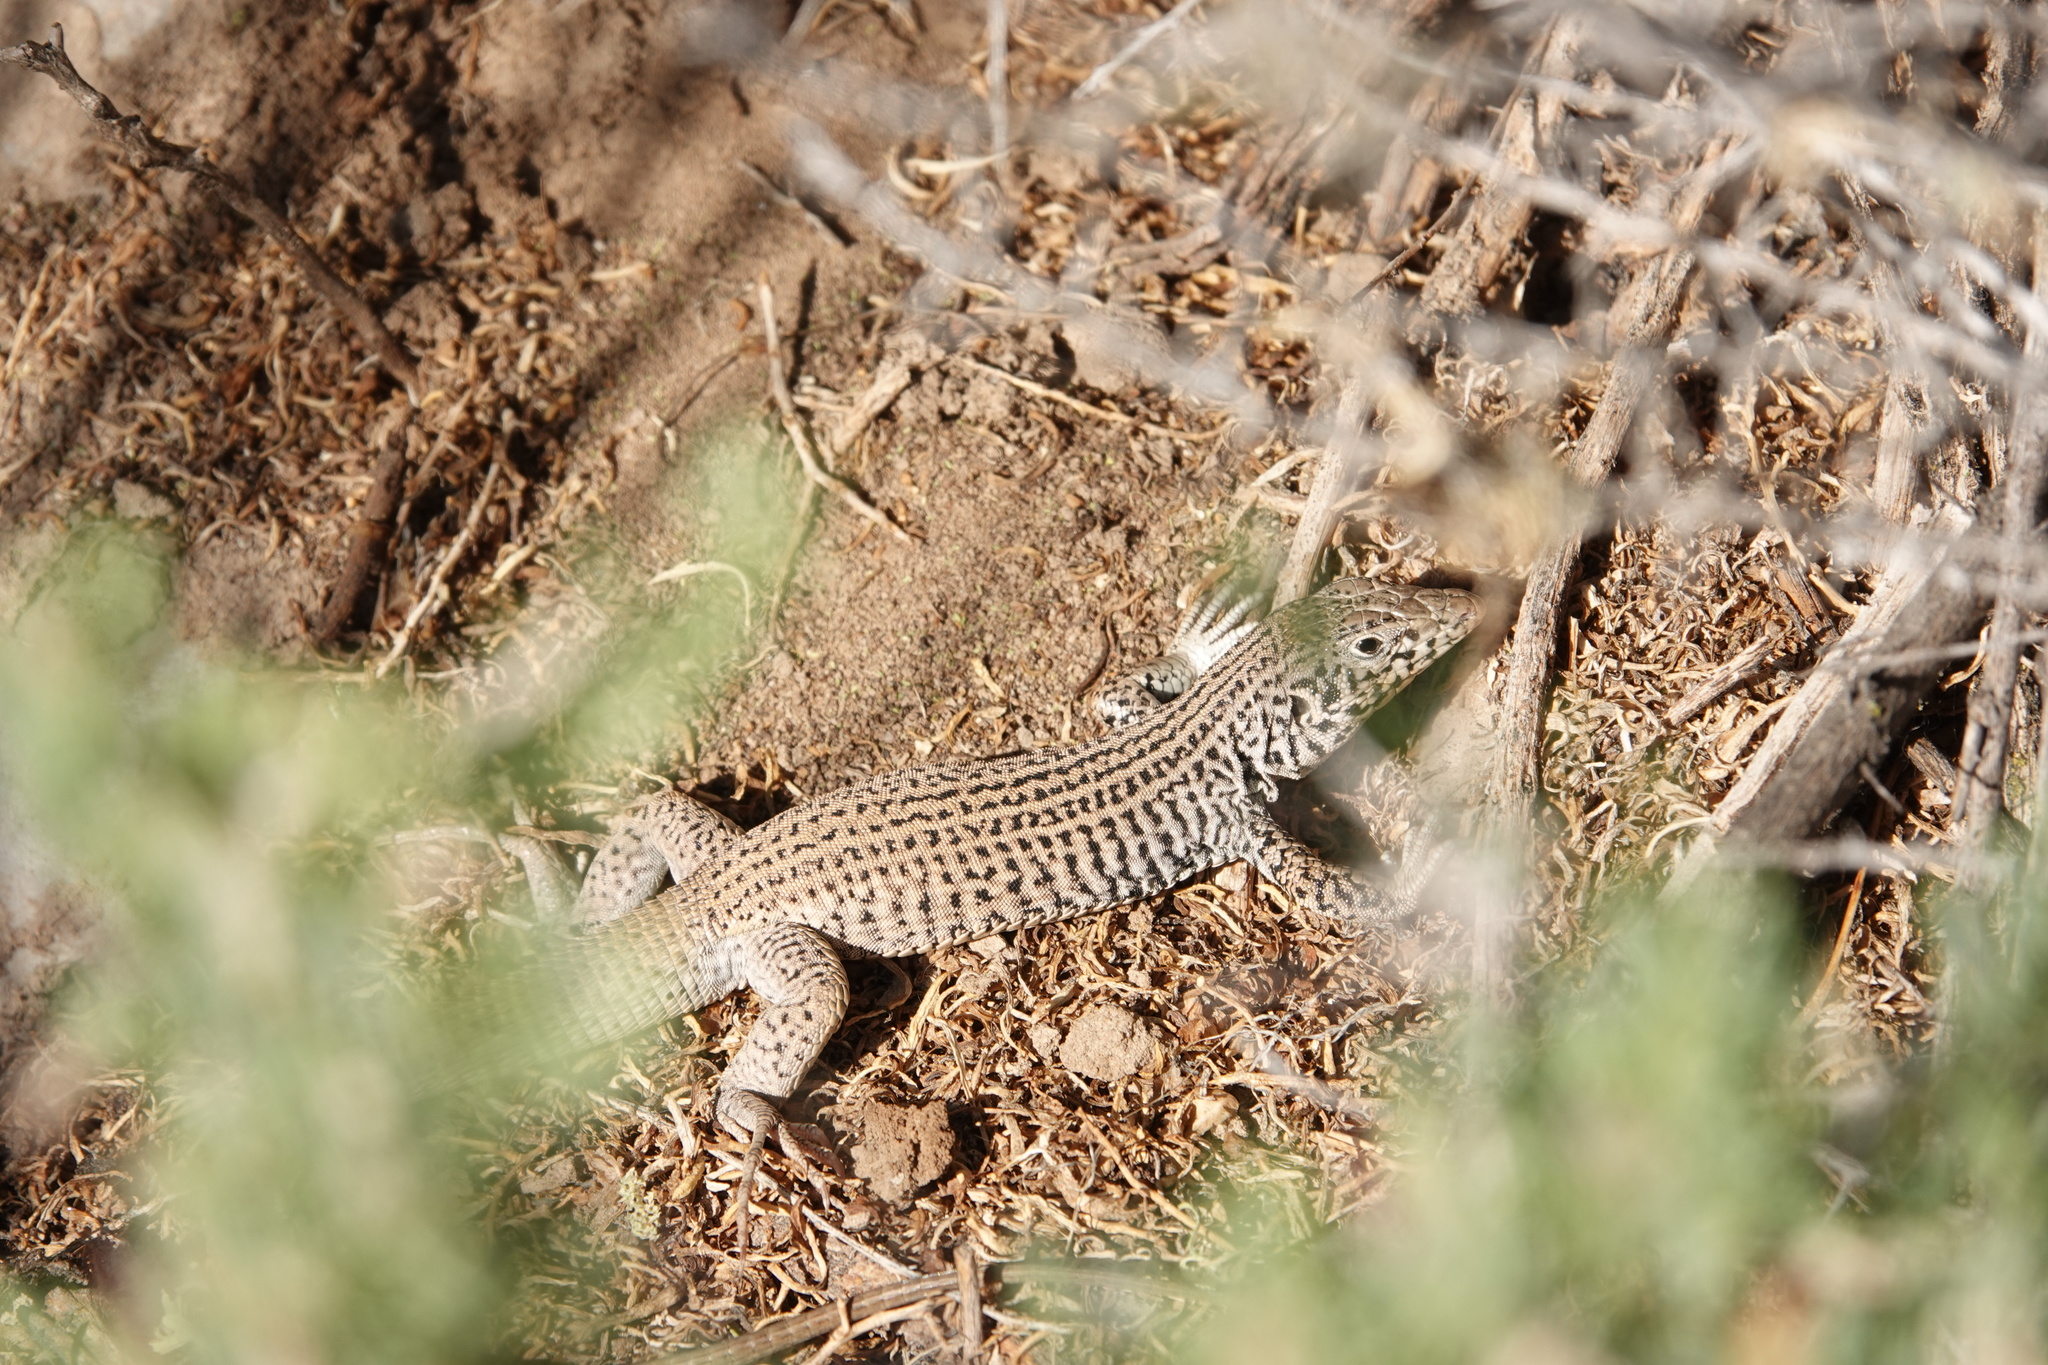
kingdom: Animalia
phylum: Chordata
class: Squamata
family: Teiidae
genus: Aspidoscelis
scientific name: Aspidoscelis tigris
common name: Tiger whiptail
